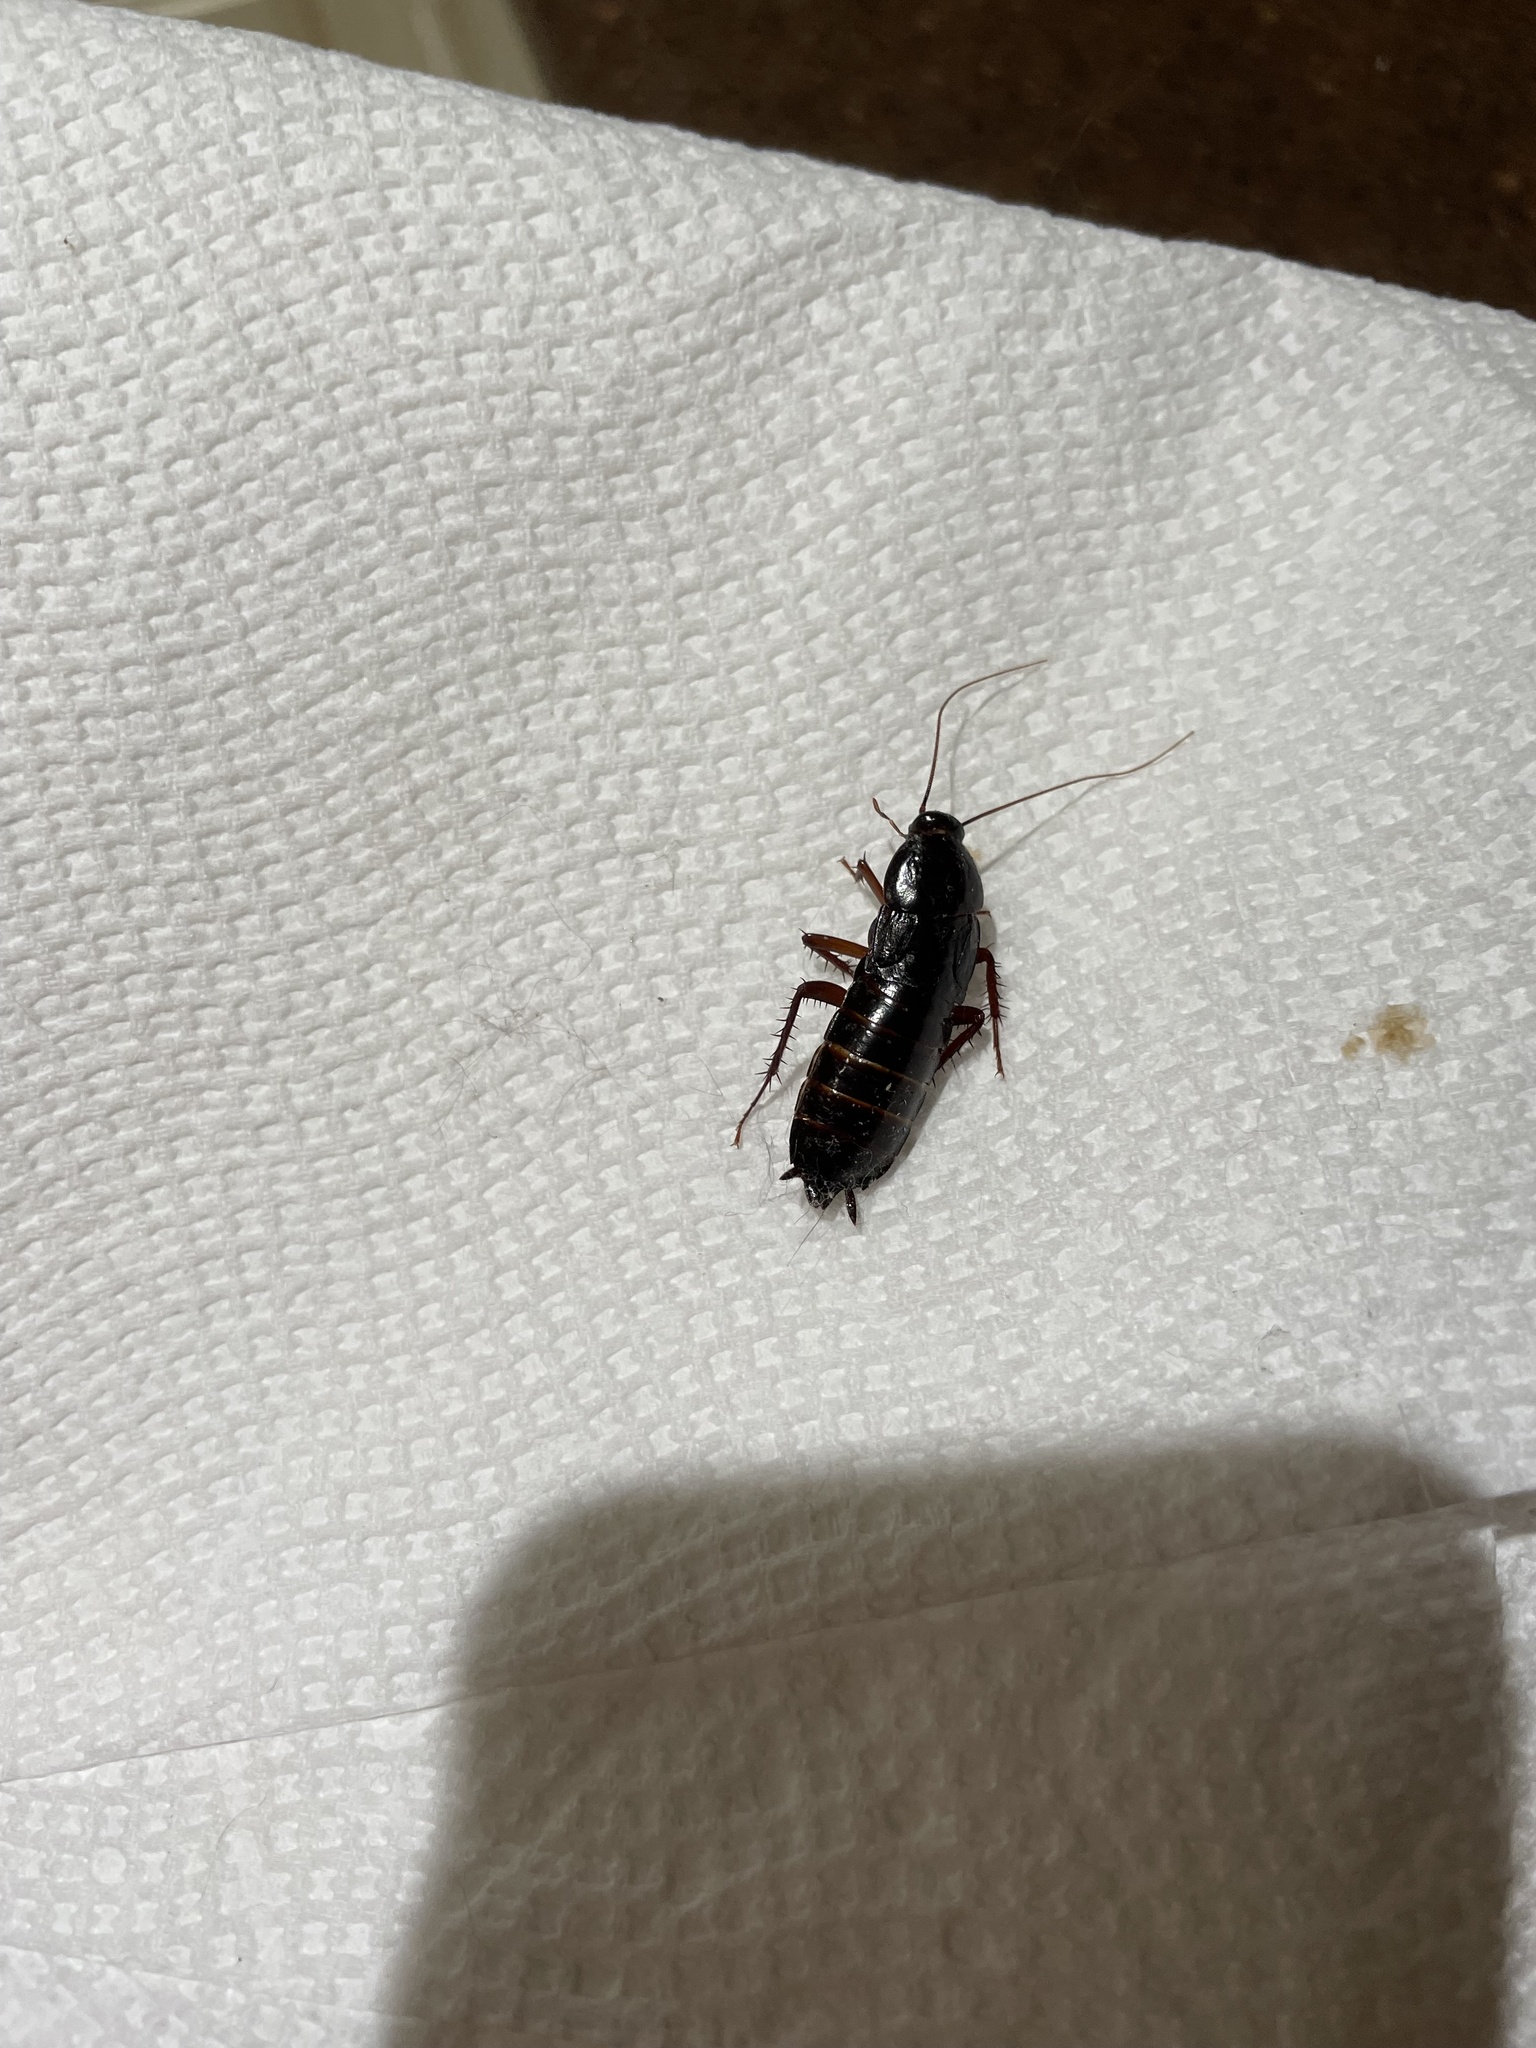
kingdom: Animalia
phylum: Arthropoda
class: Insecta
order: Blattodea
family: Blattidae
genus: Blatta
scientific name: Blatta orientalis
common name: Oriental cockroach
